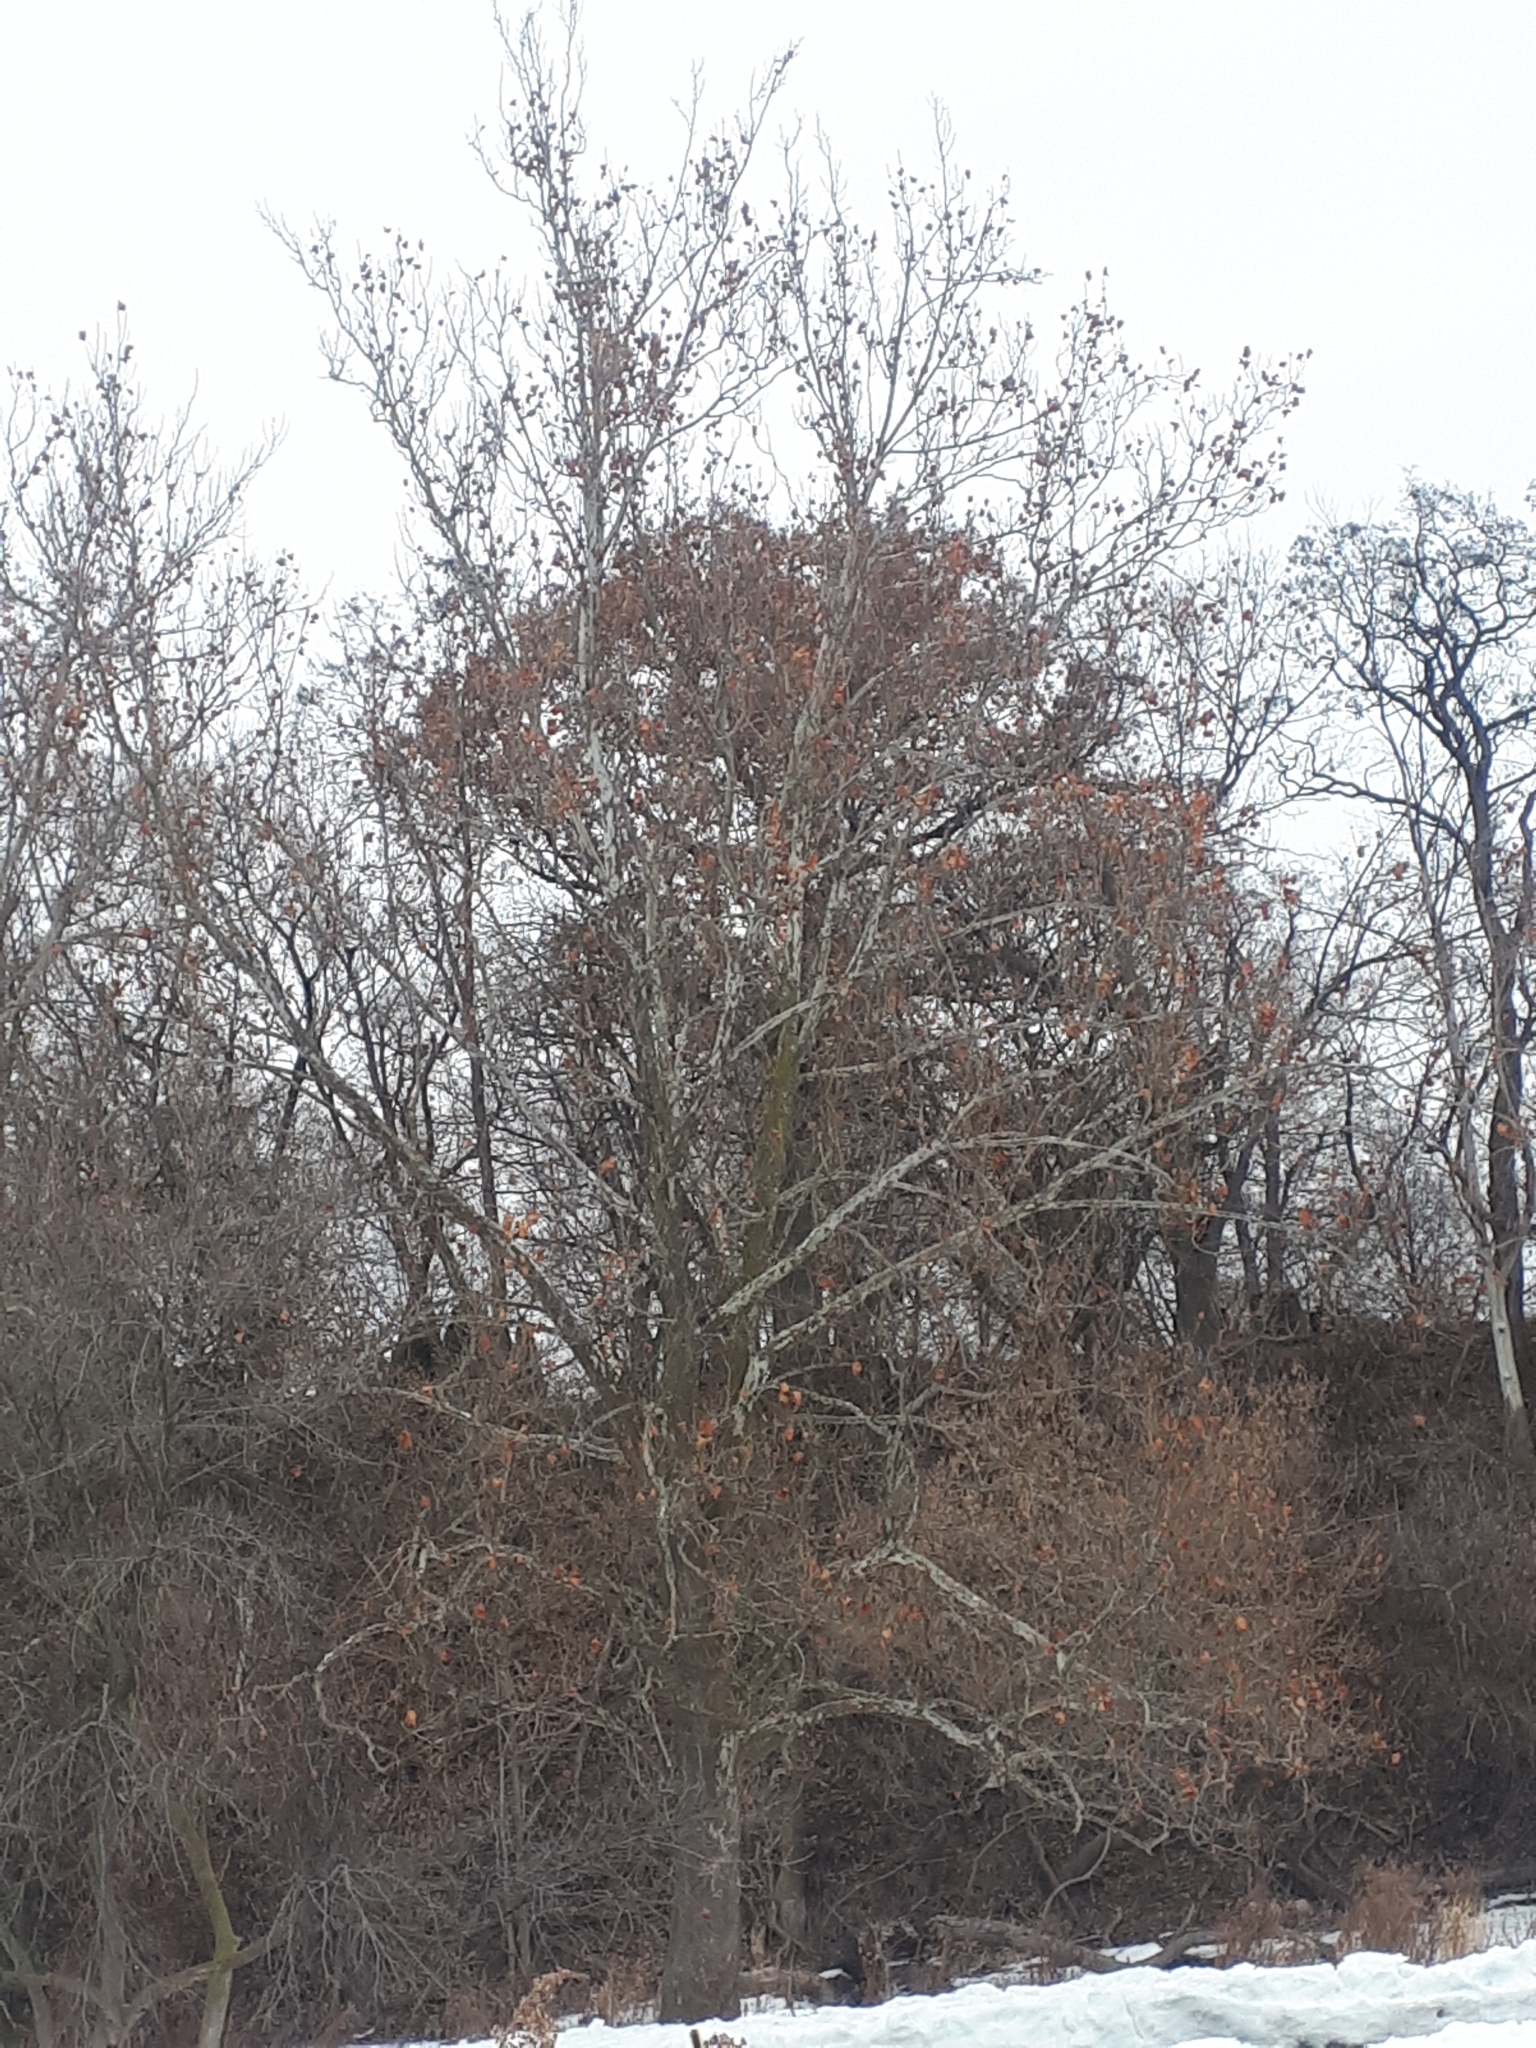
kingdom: Plantae
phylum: Tracheophyta
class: Magnoliopsida
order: Proteales
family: Platanaceae
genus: Platanus
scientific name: Platanus occidentalis
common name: American sycamore
